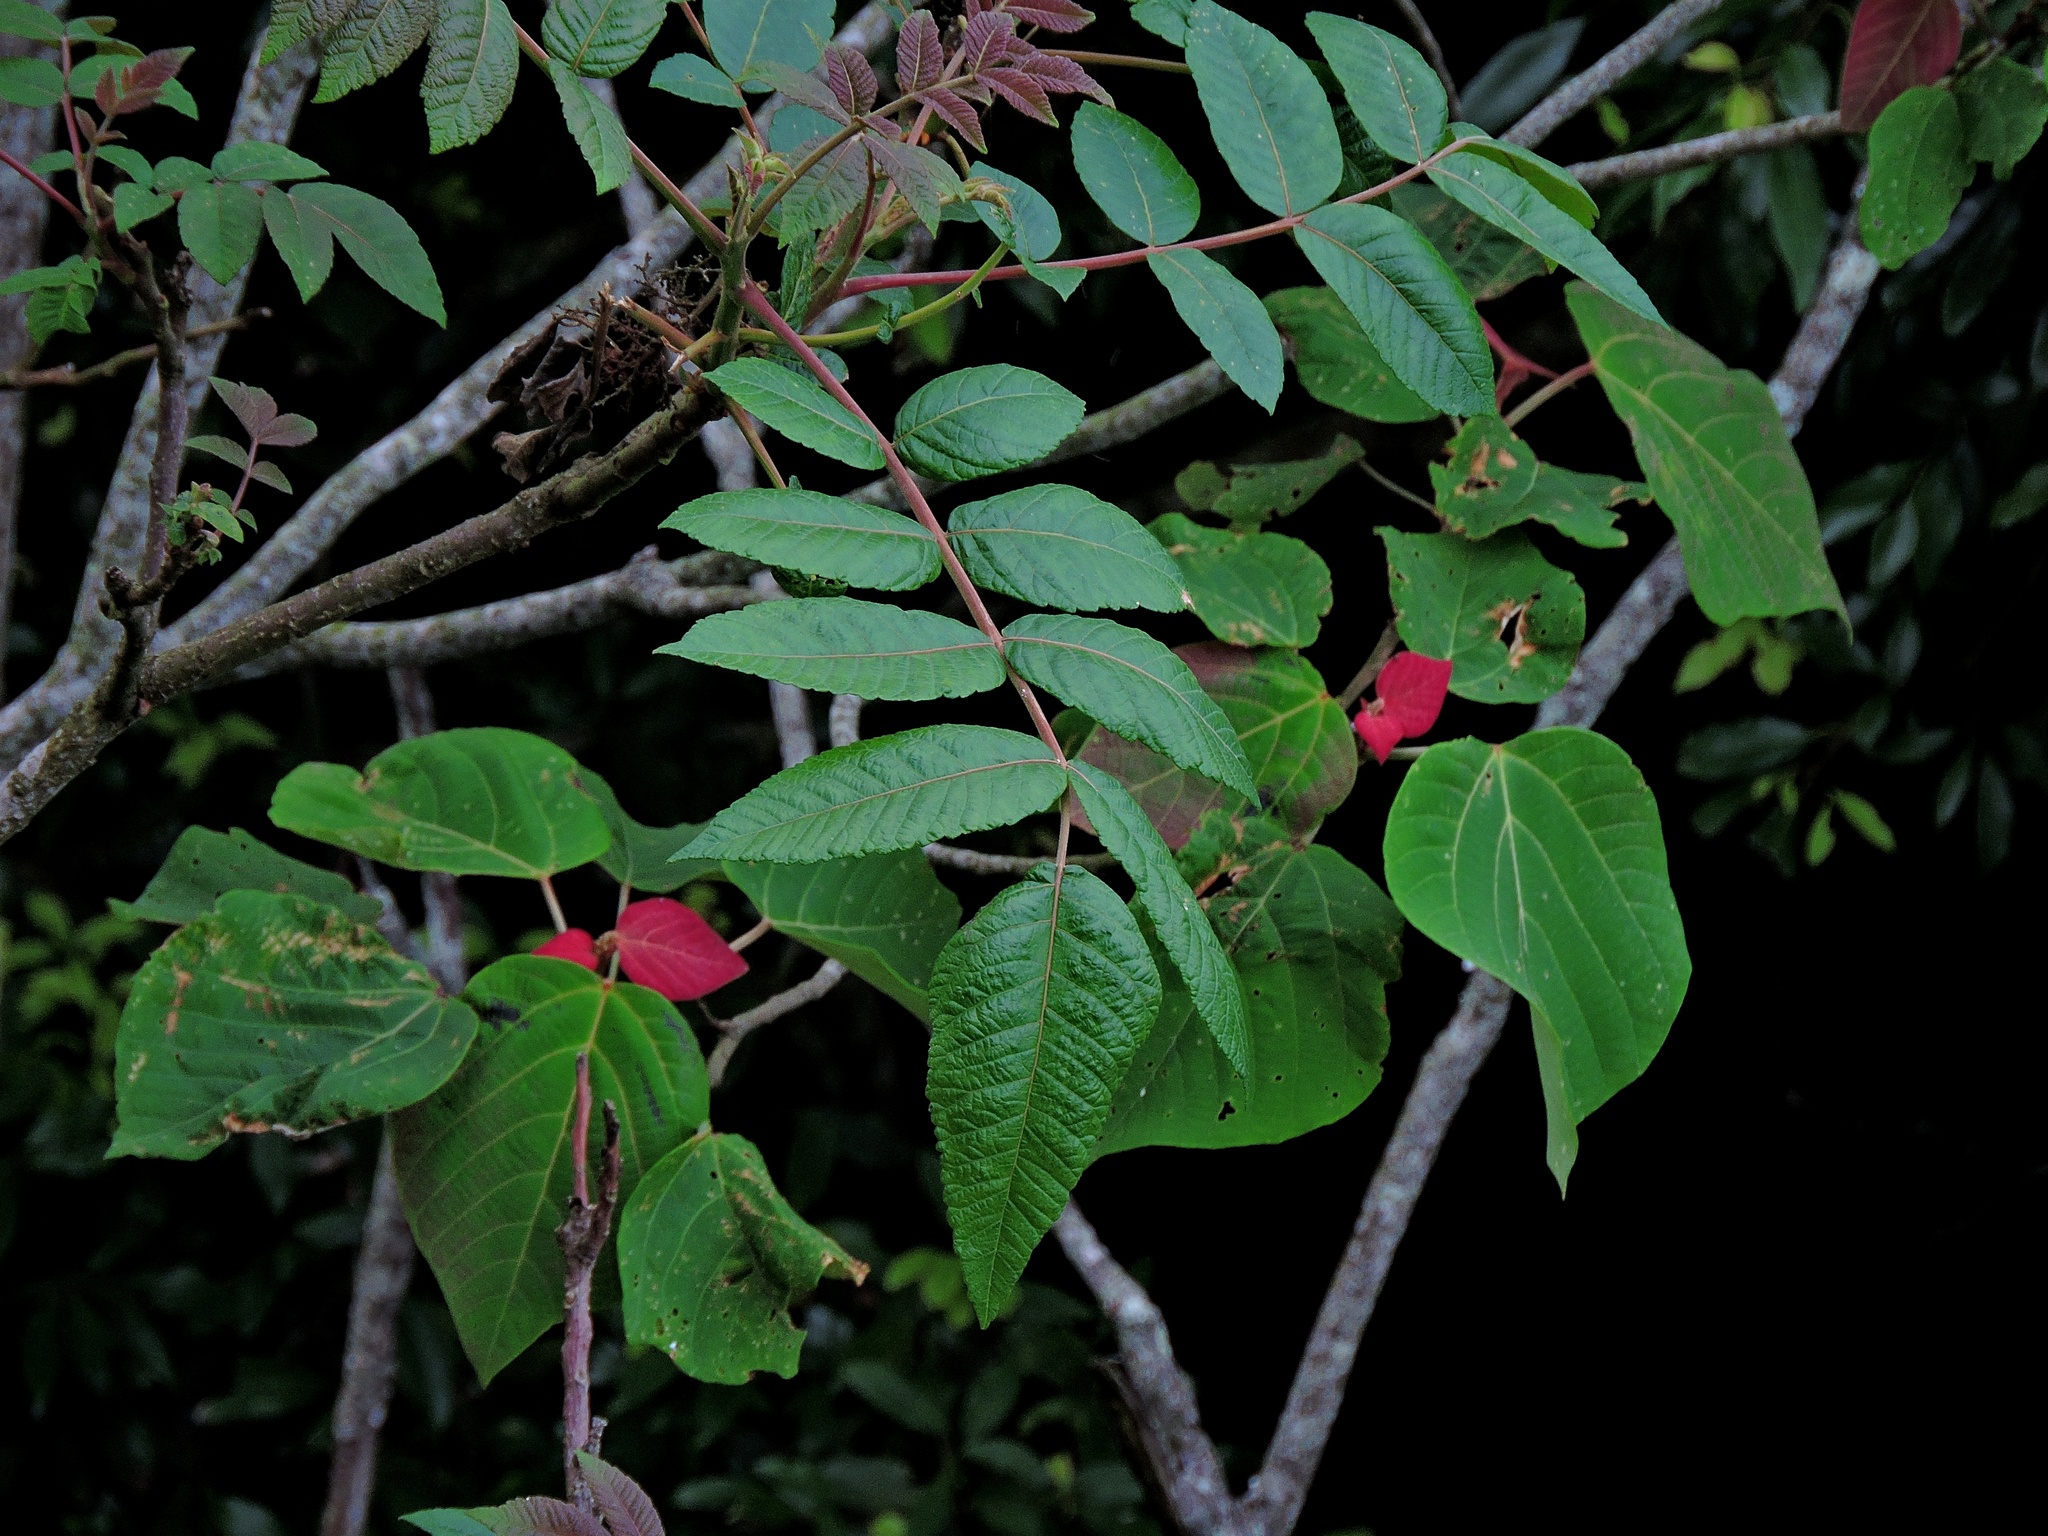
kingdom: Plantae
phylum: Tracheophyta
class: Magnoliopsida
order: Sapindales
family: Anacardiaceae
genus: Rhus
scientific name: Rhus chinensis
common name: Chinese gall
